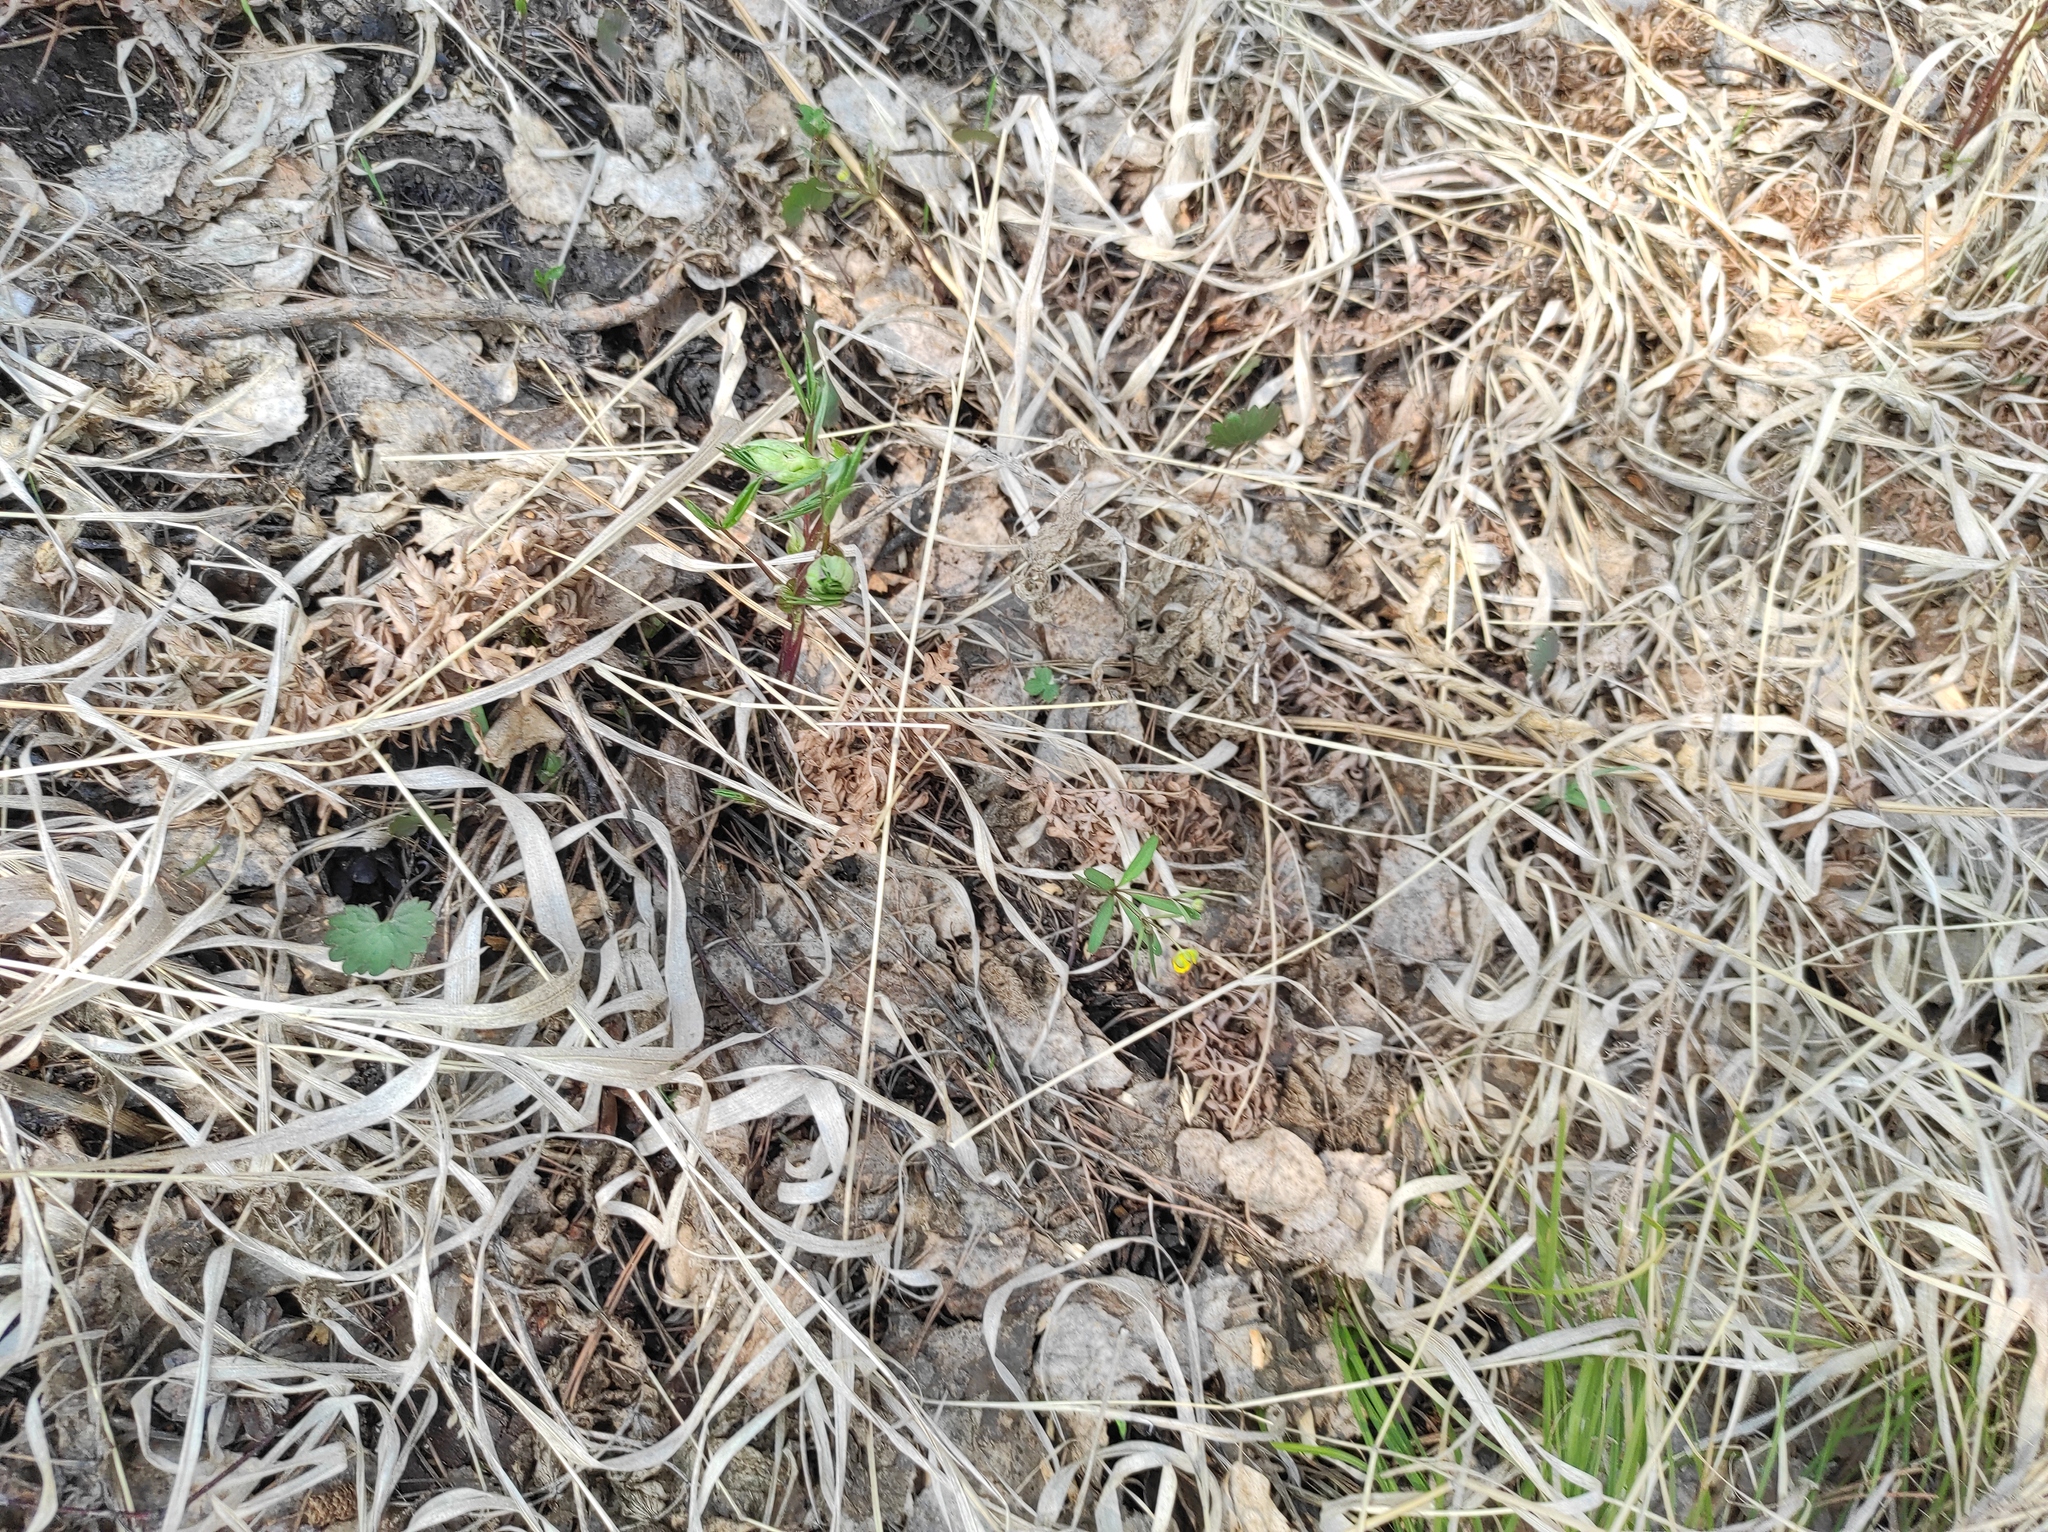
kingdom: Plantae
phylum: Tracheophyta
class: Magnoliopsida
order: Fabales
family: Fabaceae
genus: Lathyrus
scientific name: Lathyrus vernus
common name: Spring pea
